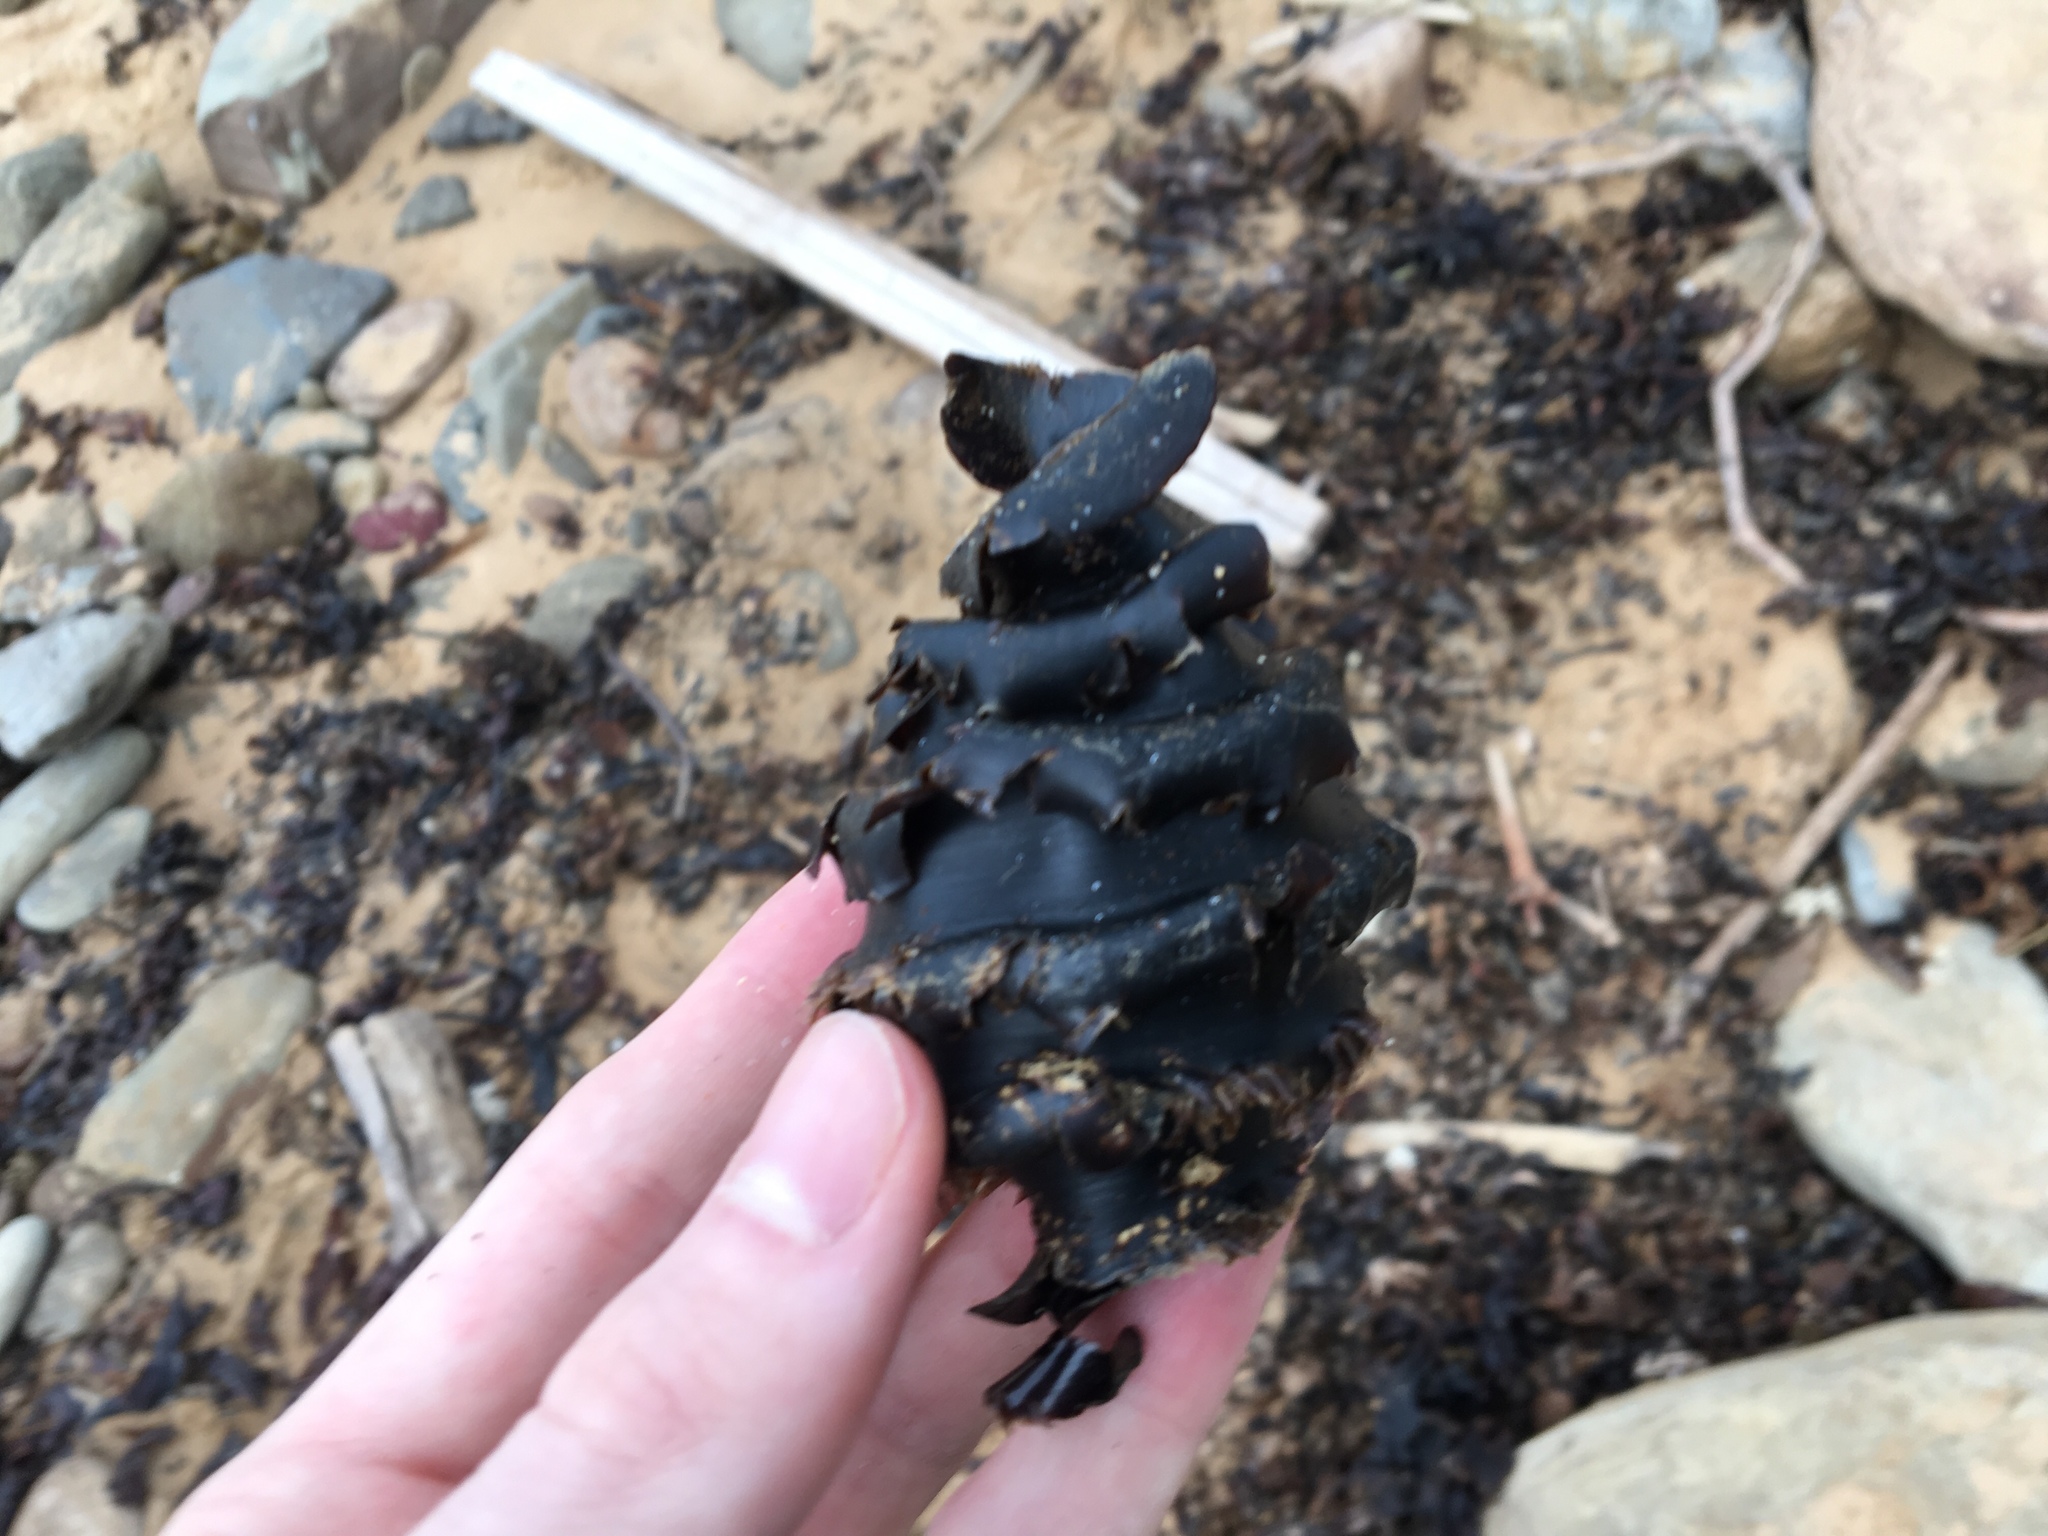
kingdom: Animalia
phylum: Chordata
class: Elasmobranchii
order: Heterodontiformes
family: Heterodontidae
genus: Heterodontus
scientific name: Heterodontus galeatus
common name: Crested bullhead shark
